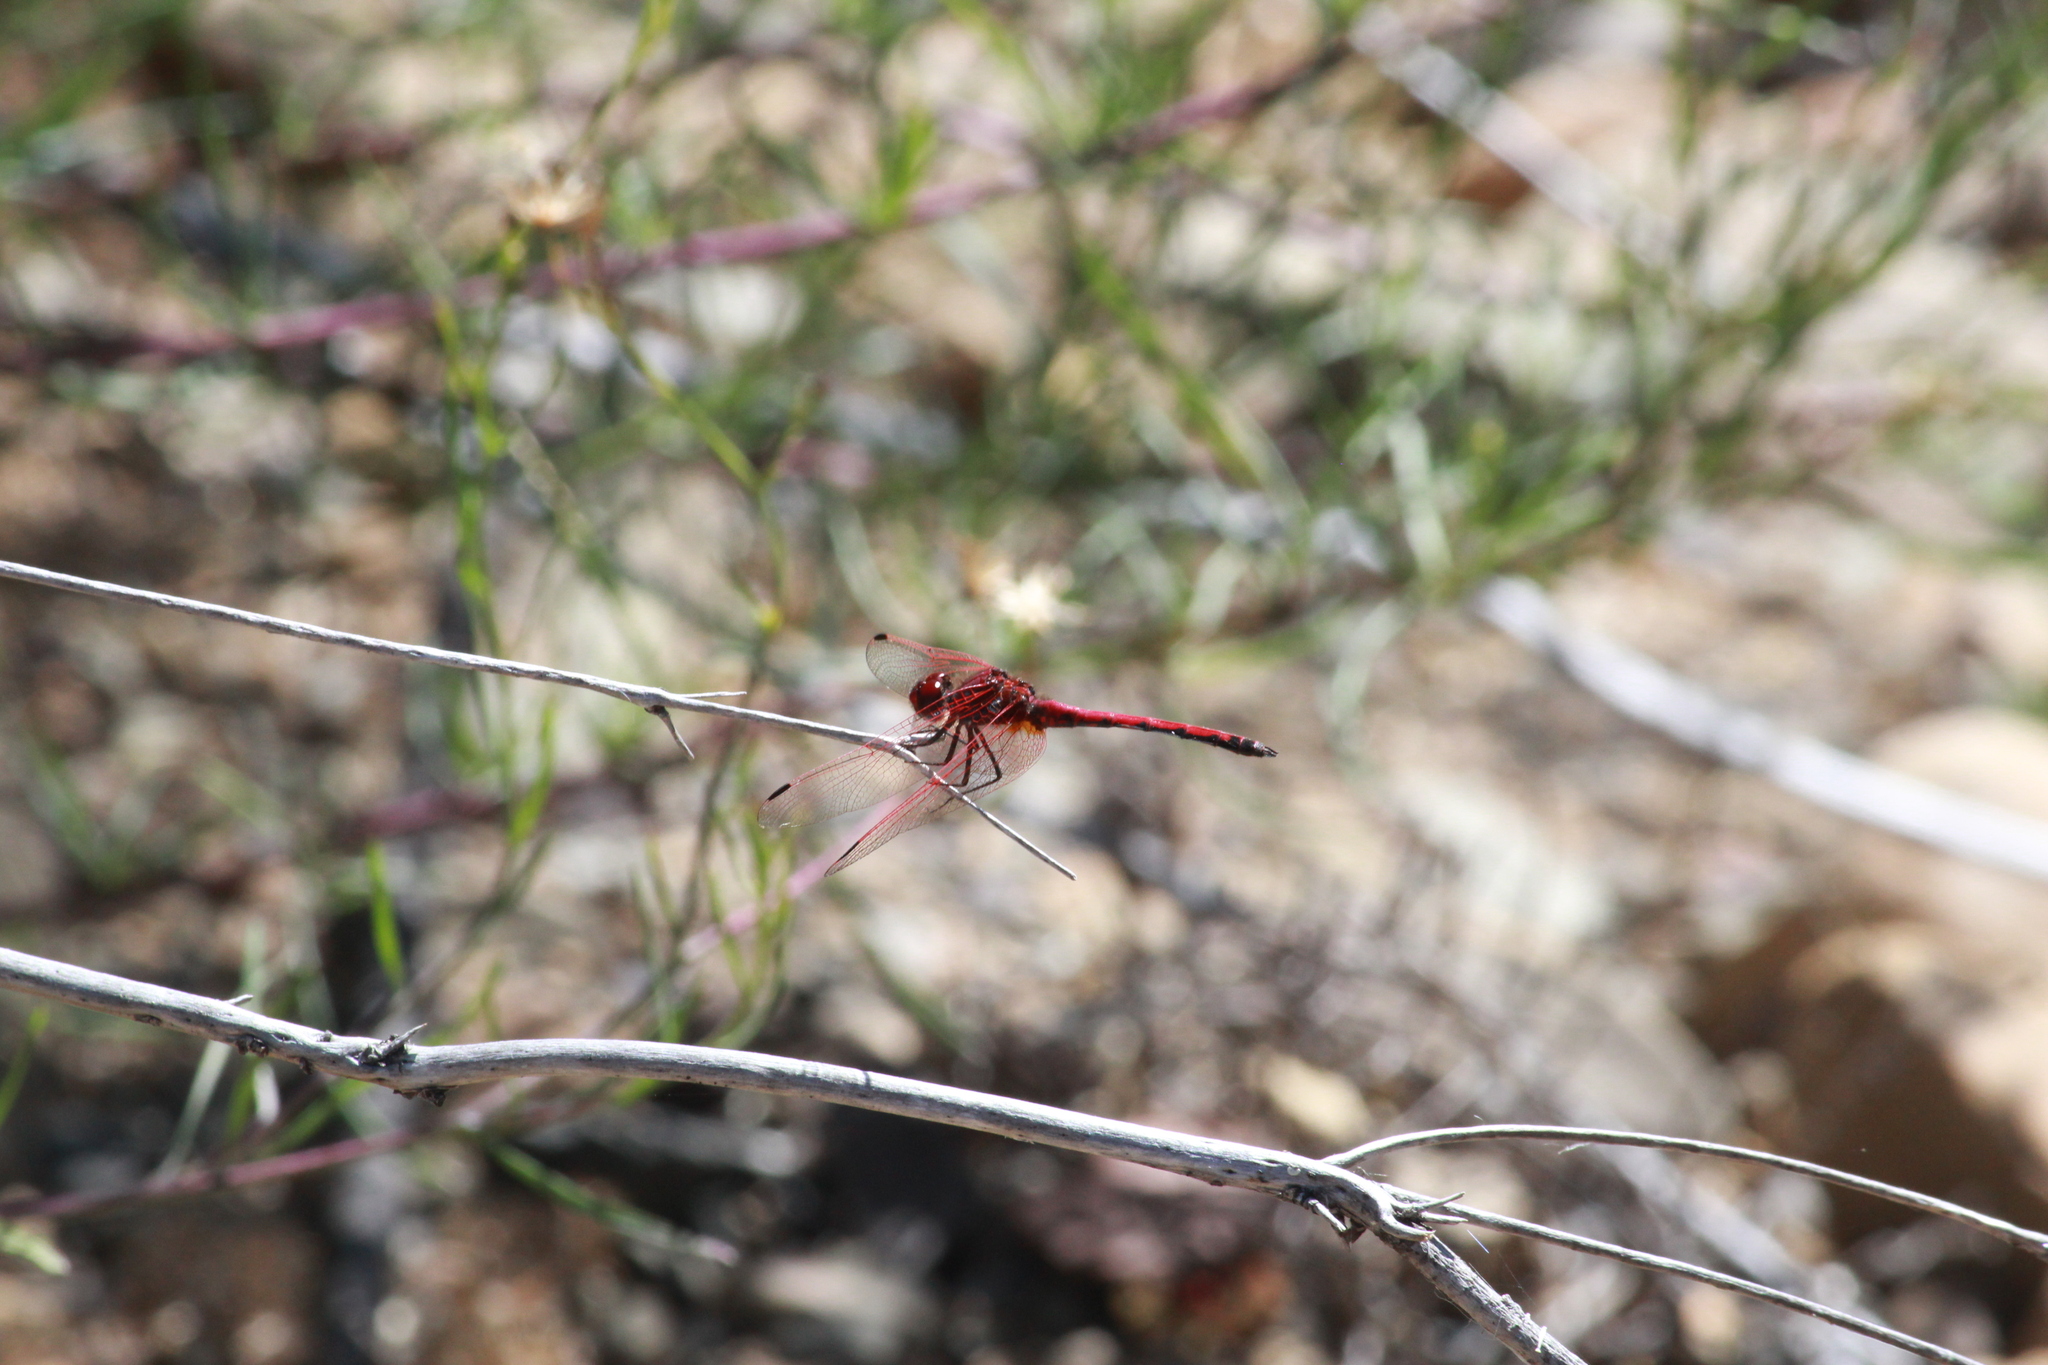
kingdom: Animalia
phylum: Arthropoda
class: Insecta
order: Odonata
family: Libellulidae
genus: Trithemis
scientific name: Trithemis arteriosa
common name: Red-veined dropwing
